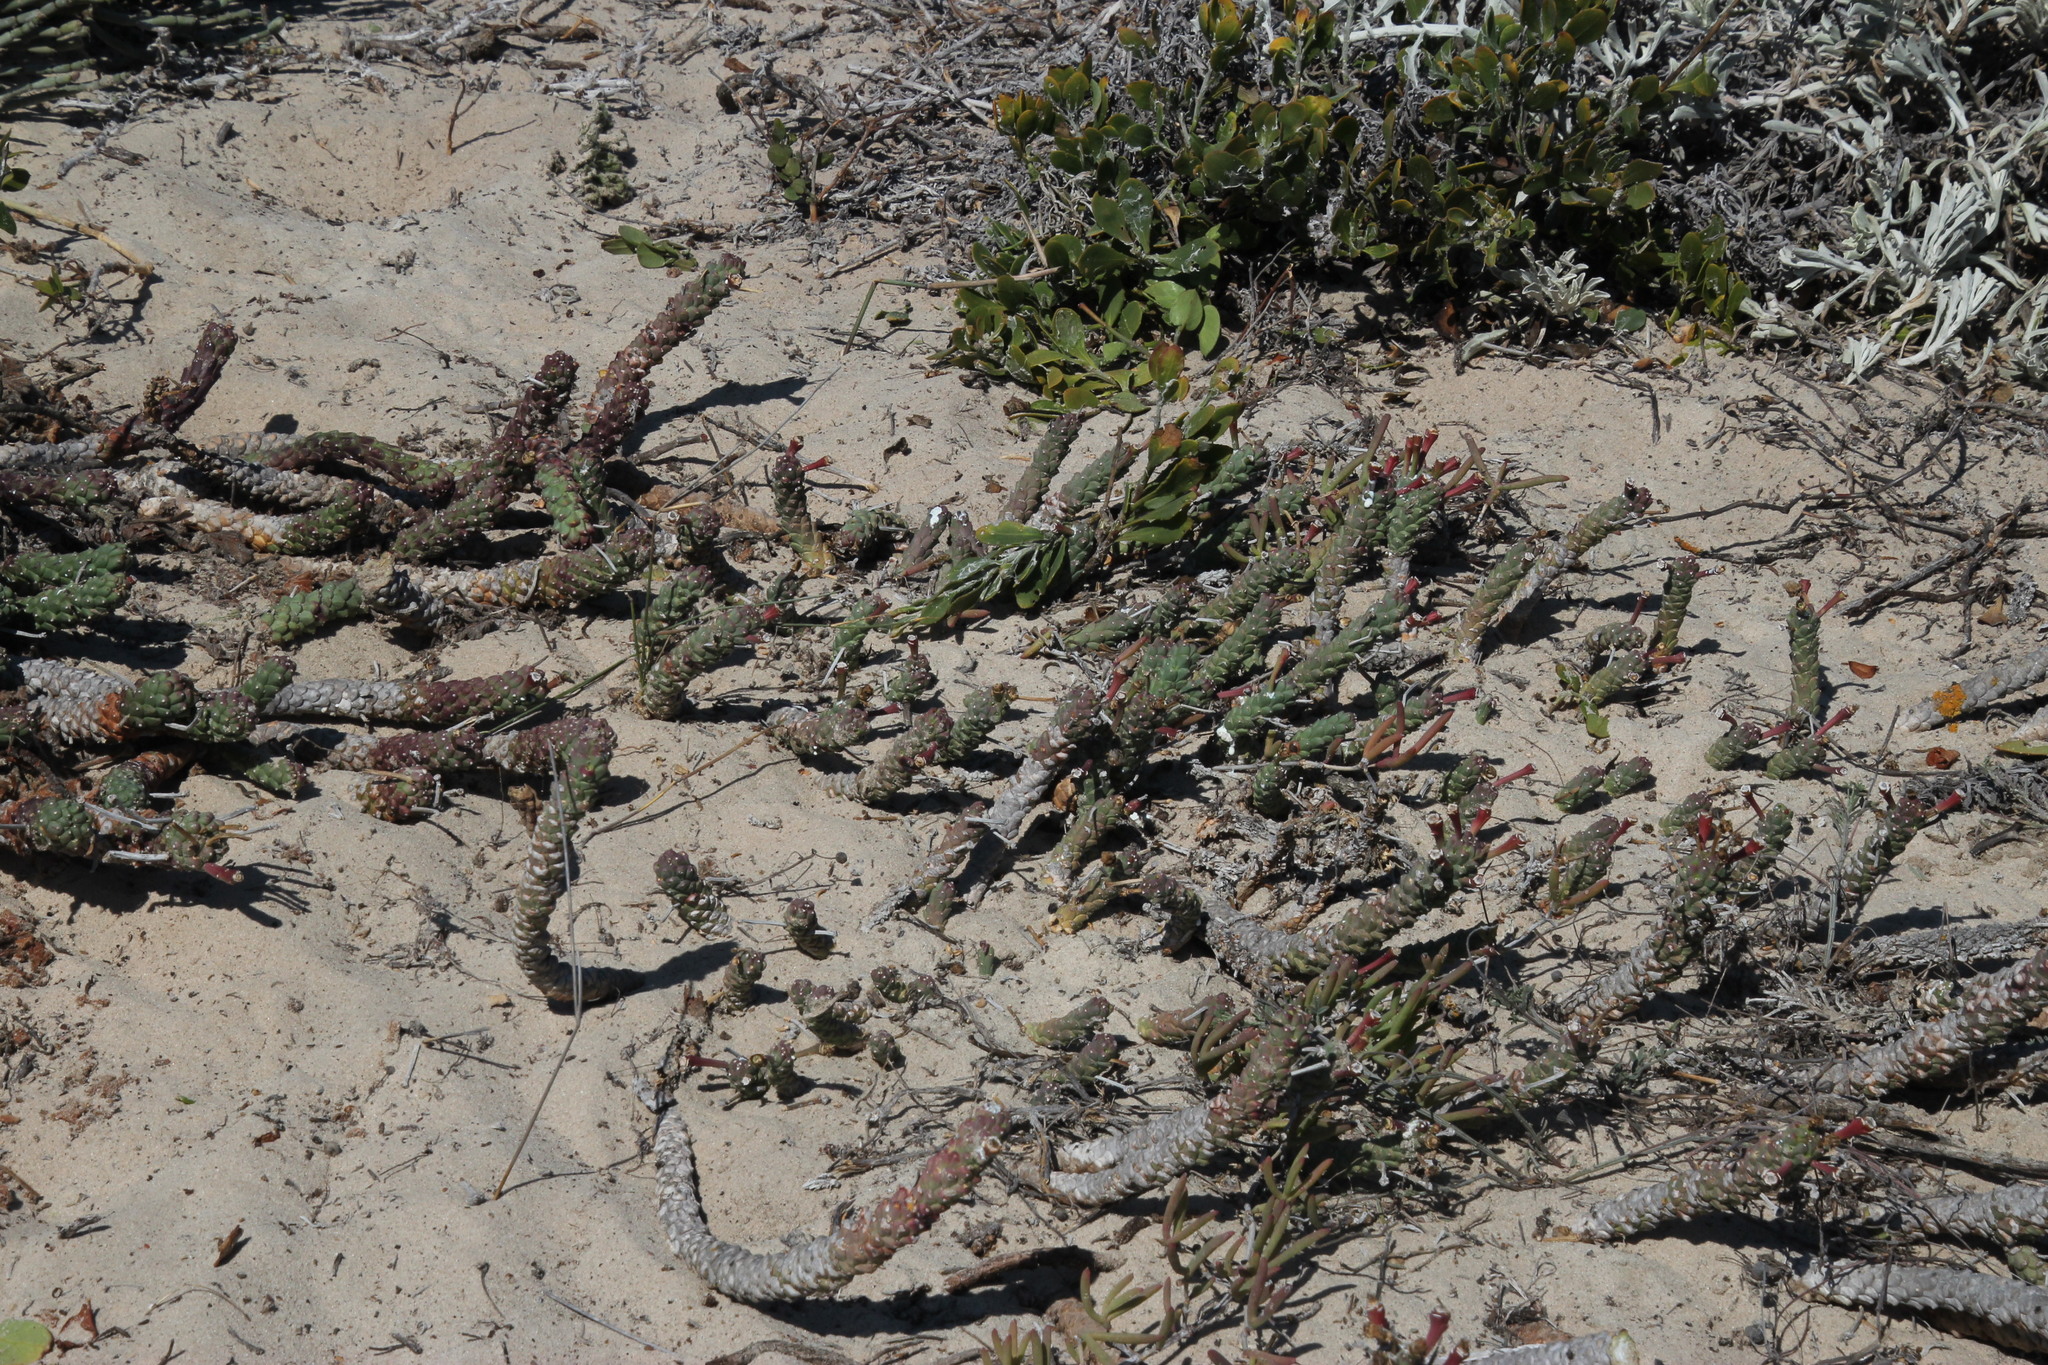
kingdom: Plantae
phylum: Tracheophyta
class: Magnoliopsida
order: Malpighiales
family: Euphorbiaceae
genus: Euphorbia
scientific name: Euphorbia caput-medusae
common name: Medusa's-head
